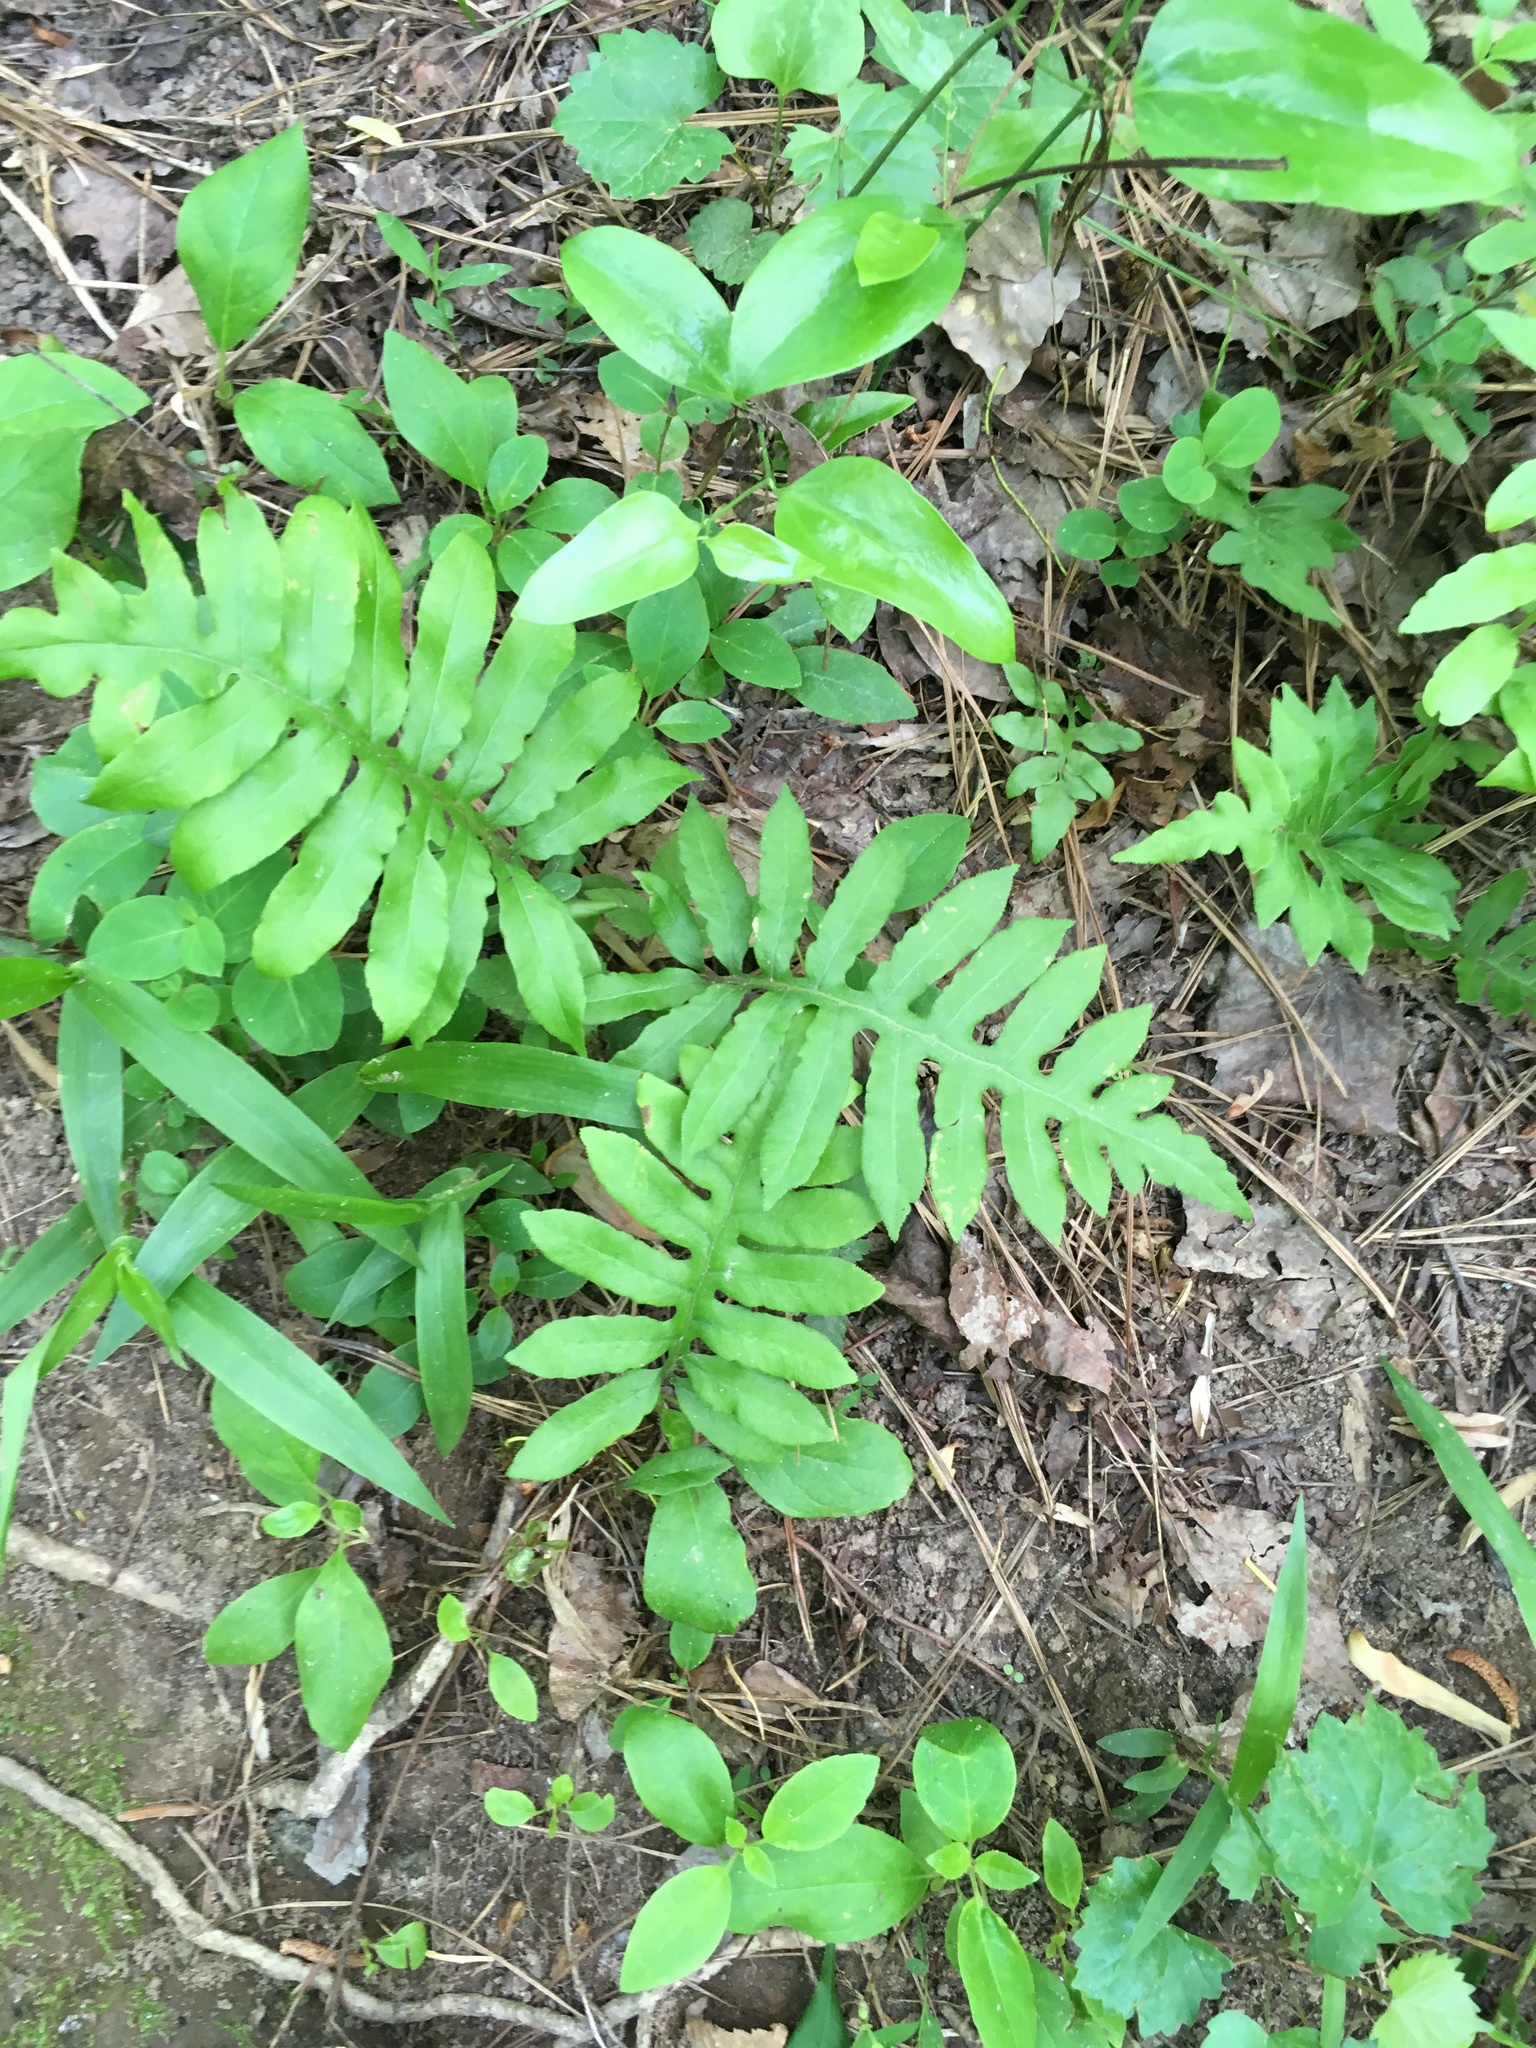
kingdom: Plantae
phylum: Tracheophyta
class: Polypodiopsida
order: Polypodiales
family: Onocleaceae
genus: Onoclea
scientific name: Onoclea sensibilis
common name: Sensitive fern
